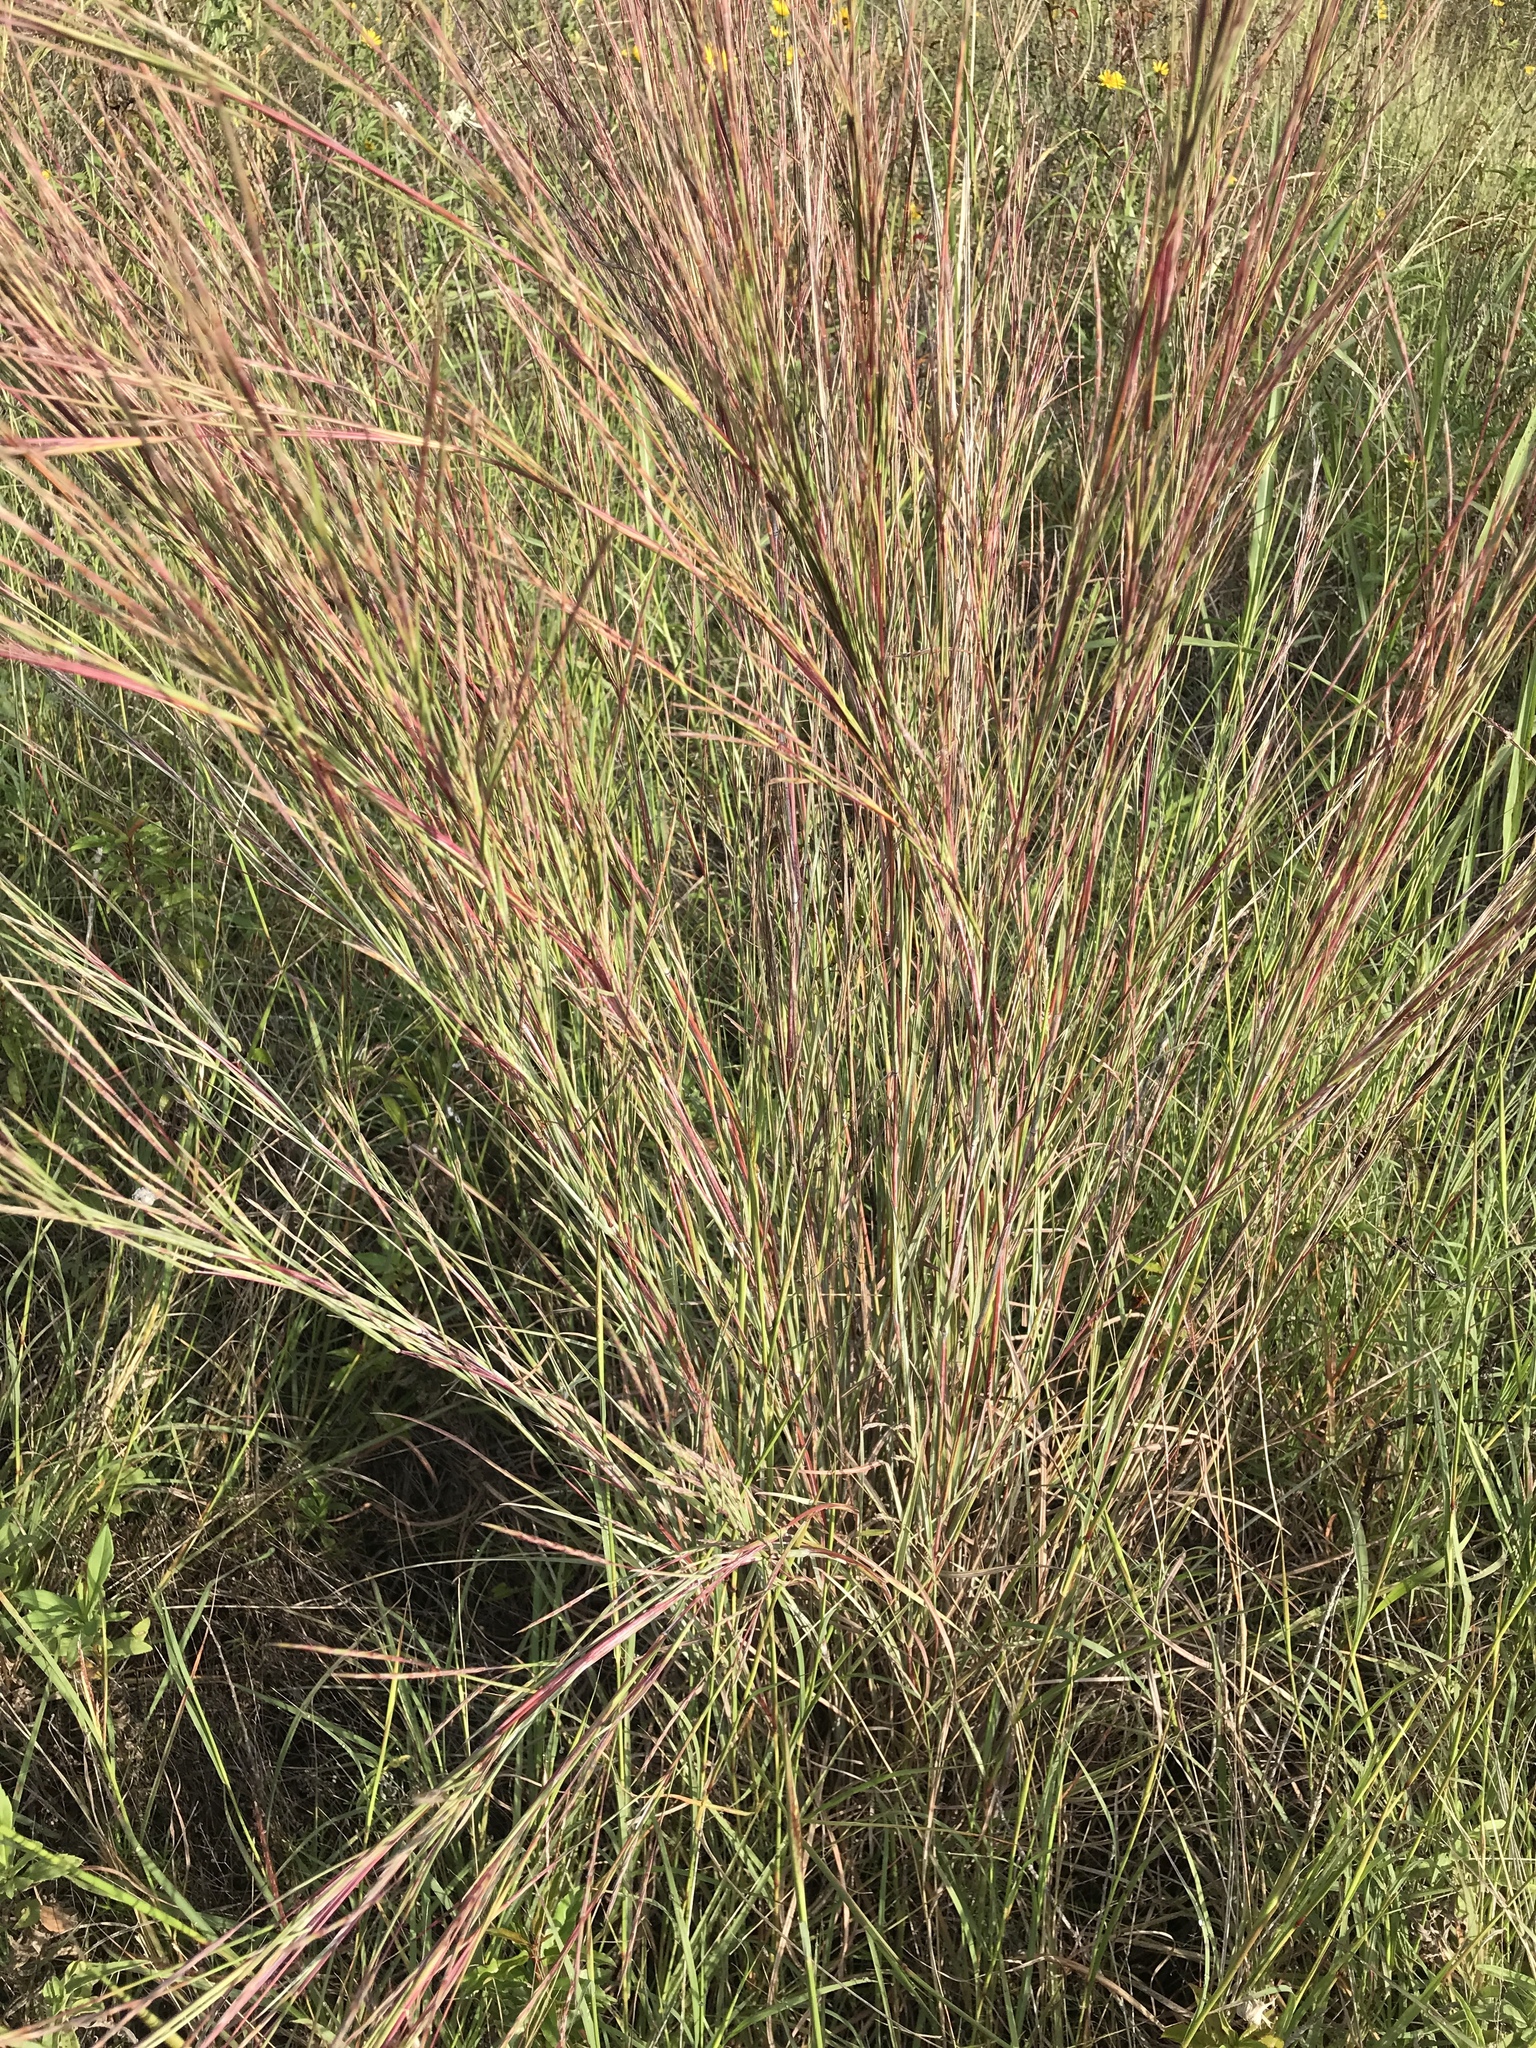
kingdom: Plantae
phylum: Tracheophyta
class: Liliopsida
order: Poales
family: Poaceae
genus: Schizachyrium
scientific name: Schizachyrium scoparium
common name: Little bluestem
